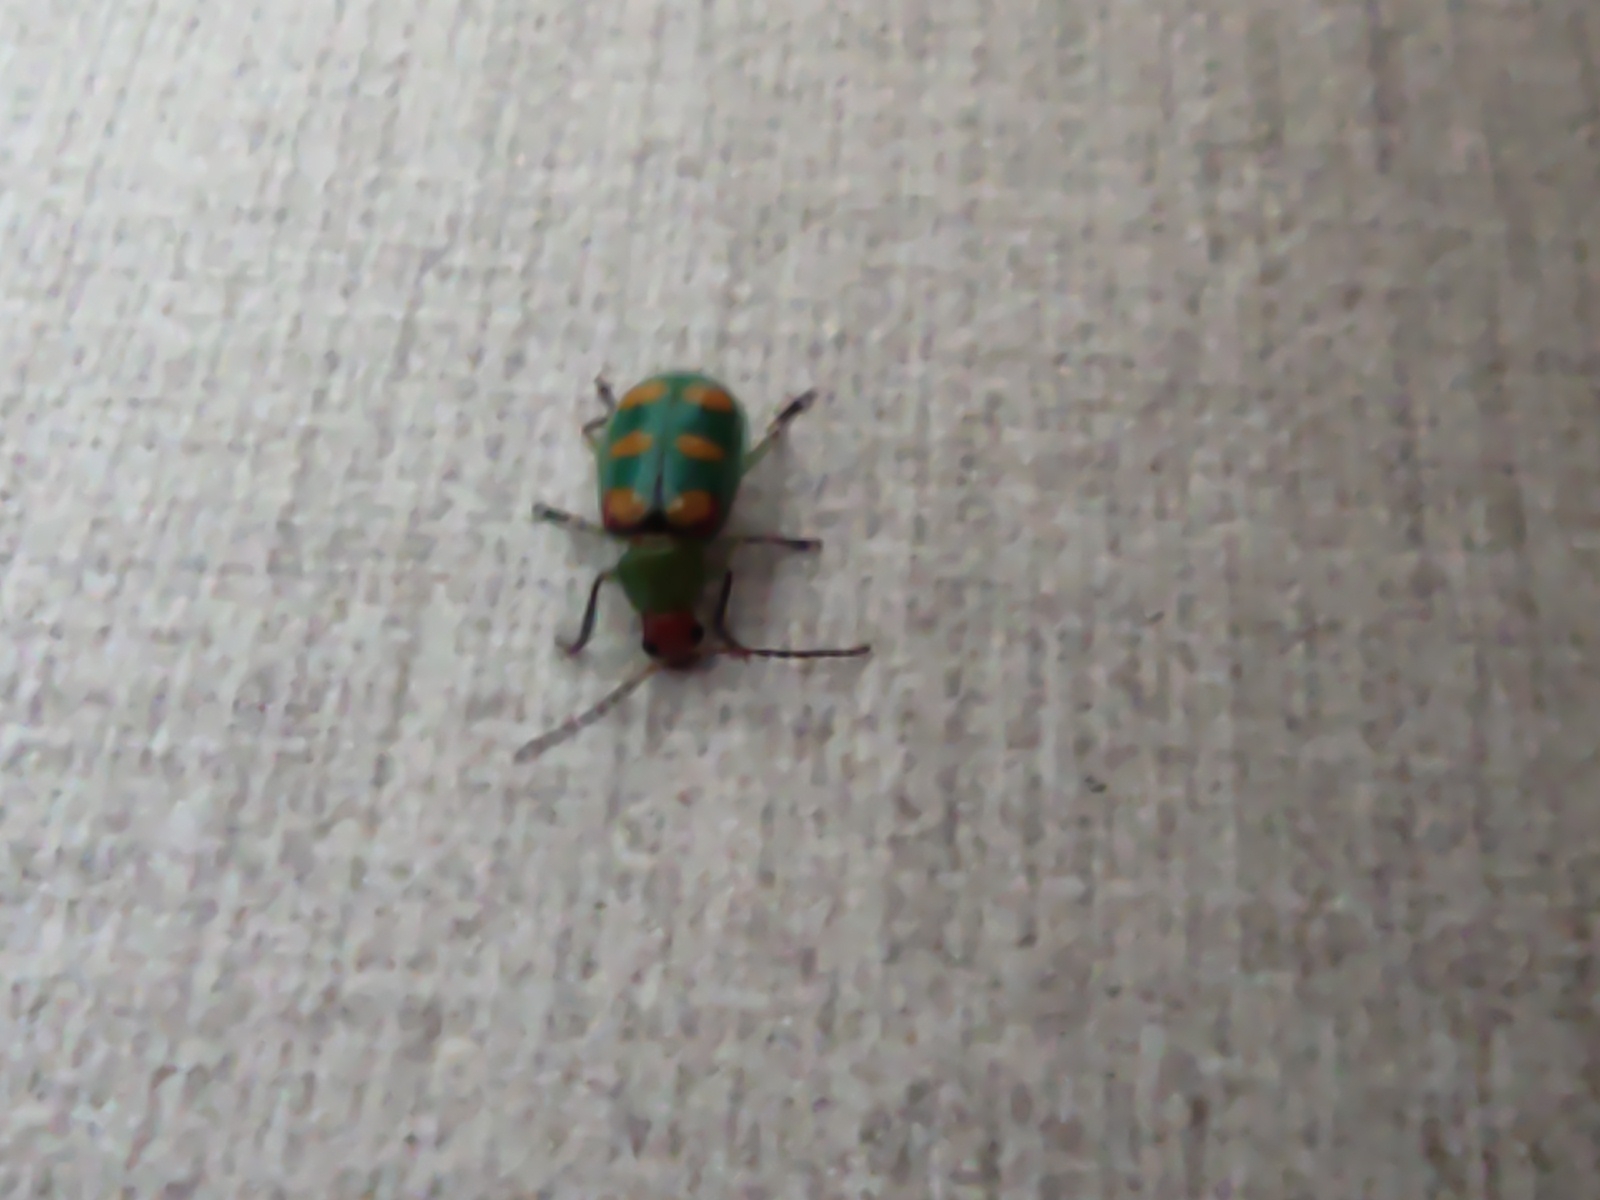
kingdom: Animalia
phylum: Arthropoda
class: Insecta
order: Coleoptera
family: Chrysomelidae
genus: Diabrotica
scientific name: Diabrotica speciosa
